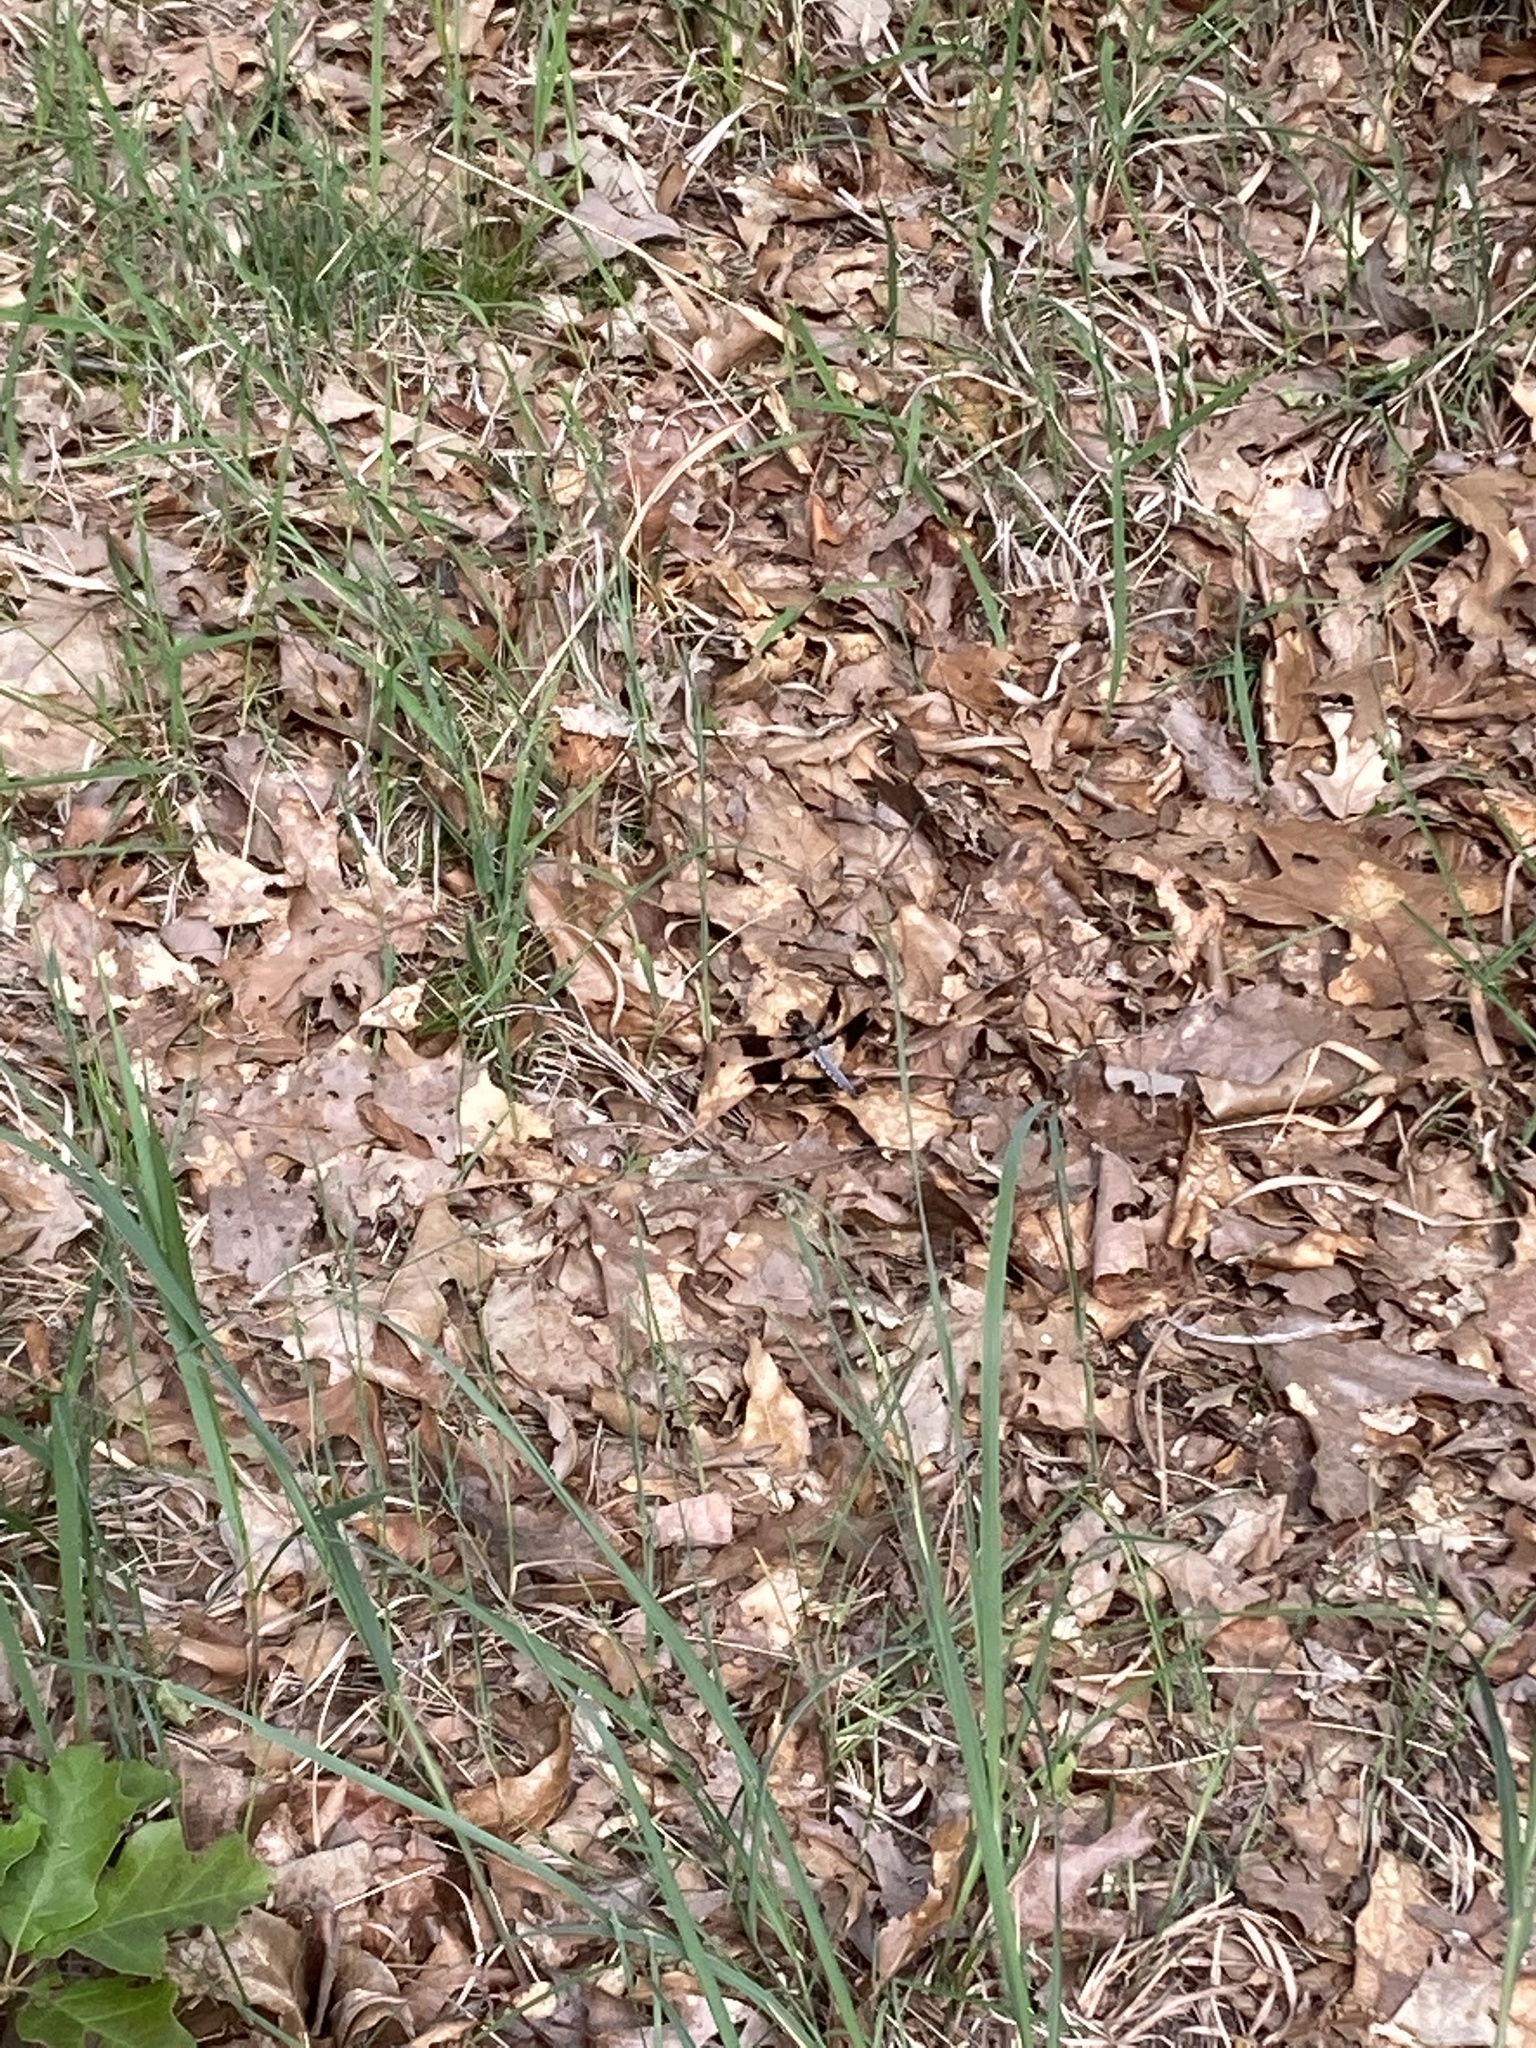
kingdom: Animalia
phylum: Arthropoda
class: Insecta
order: Odonata
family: Libellulidae
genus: Plathemis
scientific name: Plathemis lydia
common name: Common whitetail
